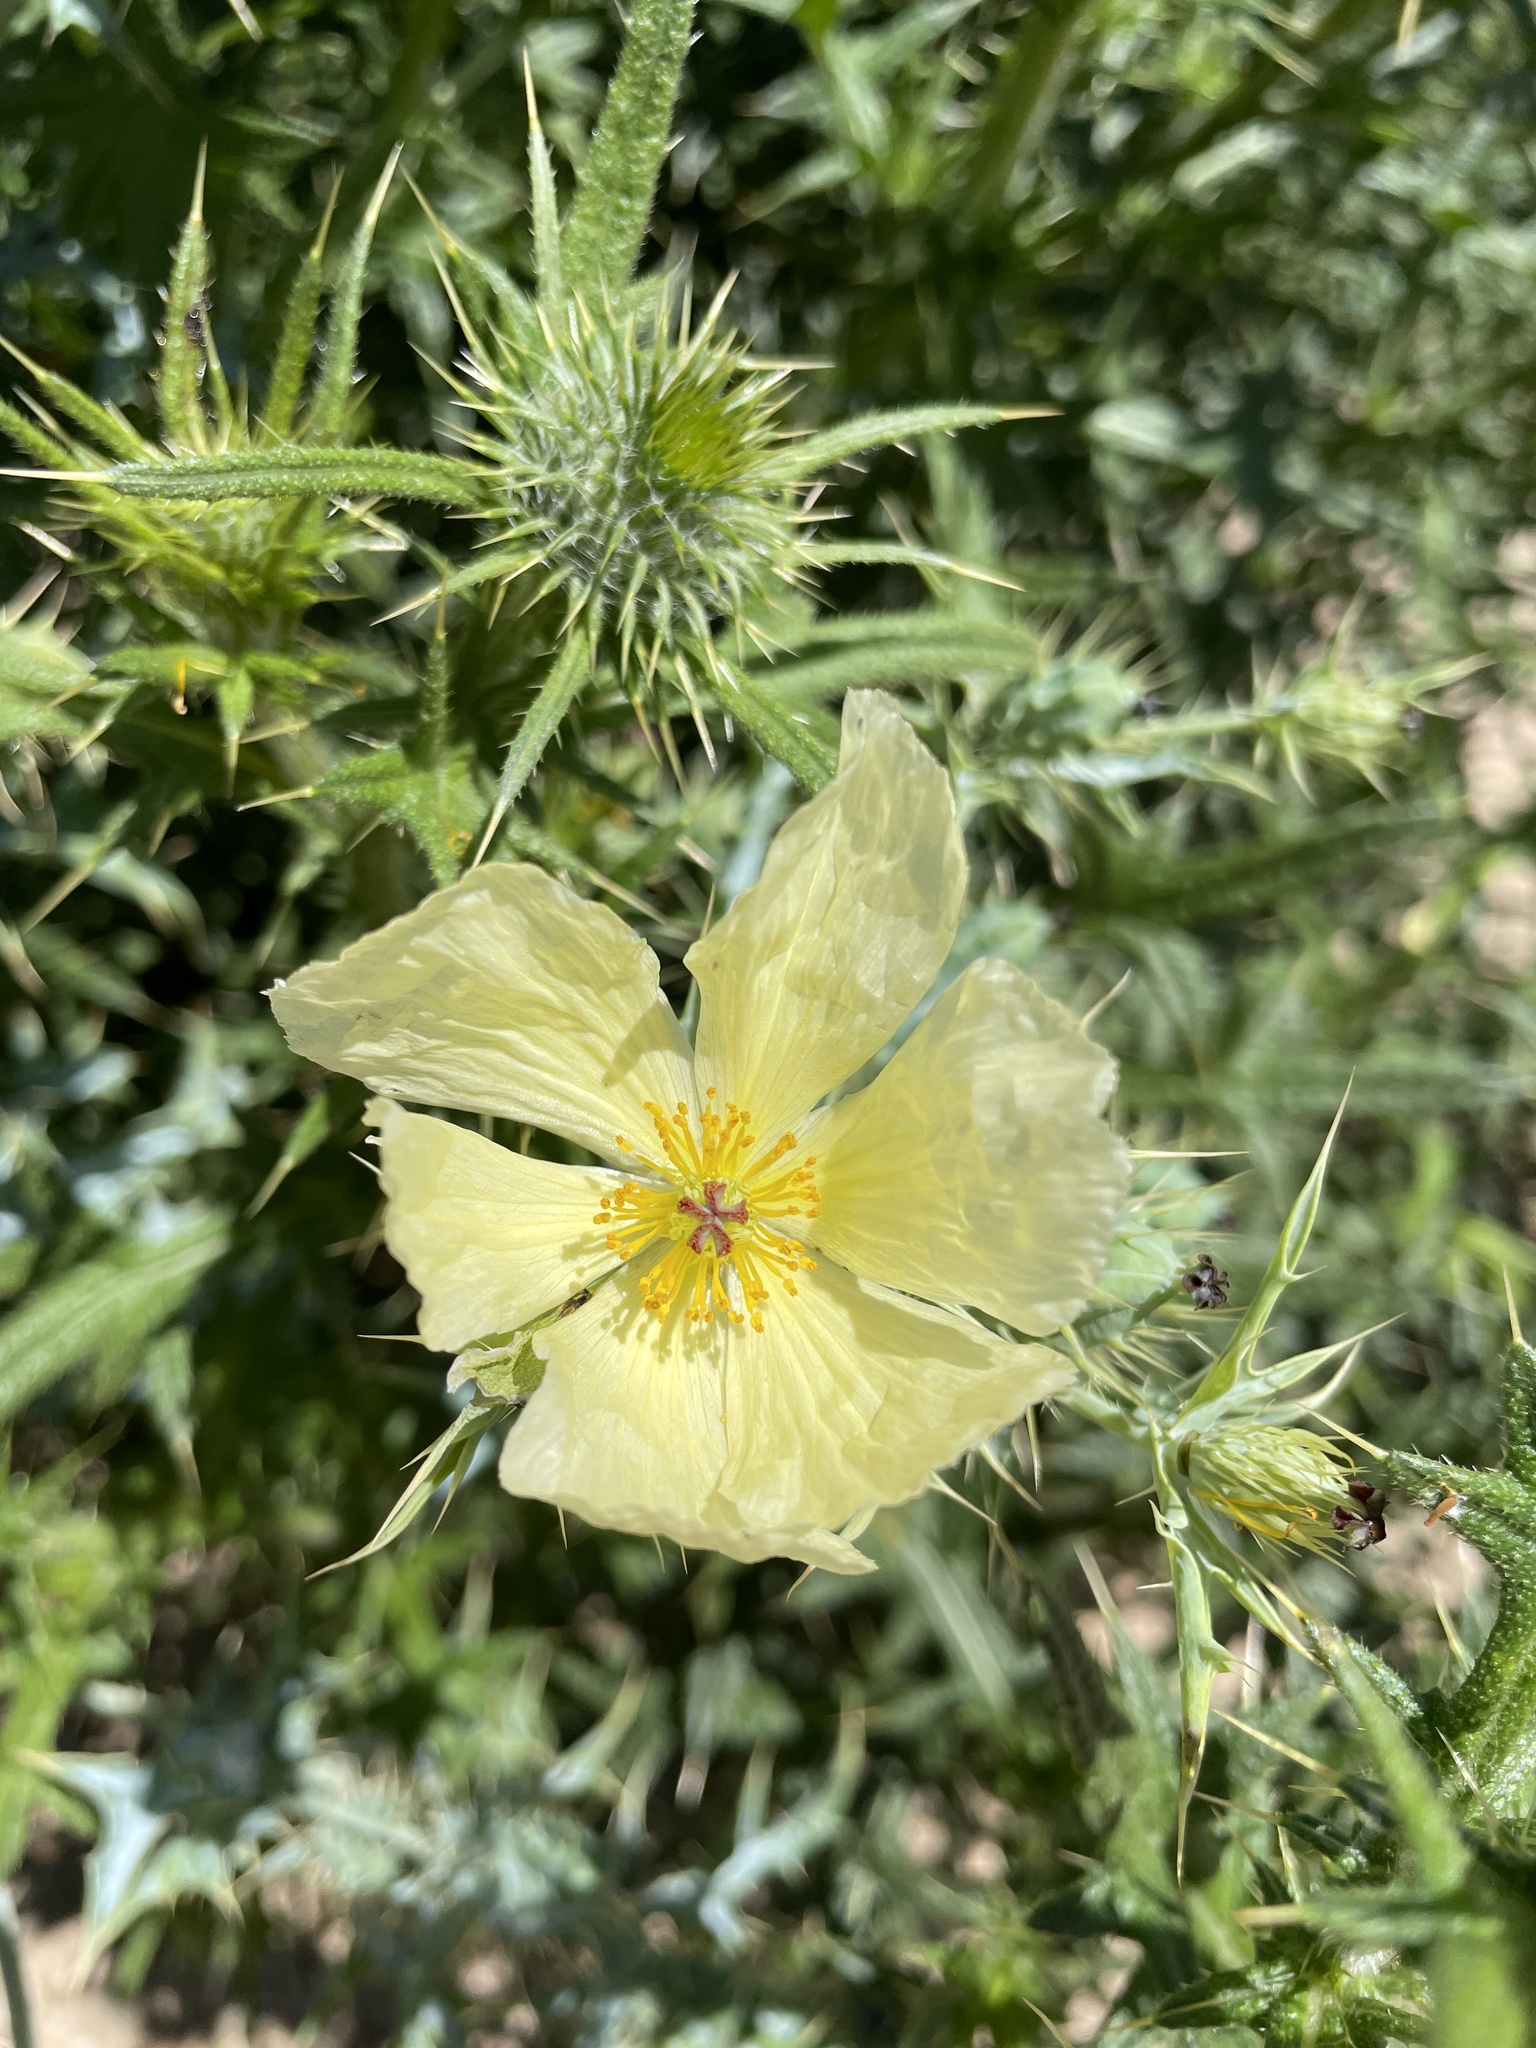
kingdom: Plantae
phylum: Tracheophyta
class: Magnoliopsida
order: Ranunculales
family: Papaveraceae
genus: Argemone
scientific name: Argemone ochroleuca
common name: White-flower mexican-poppy
